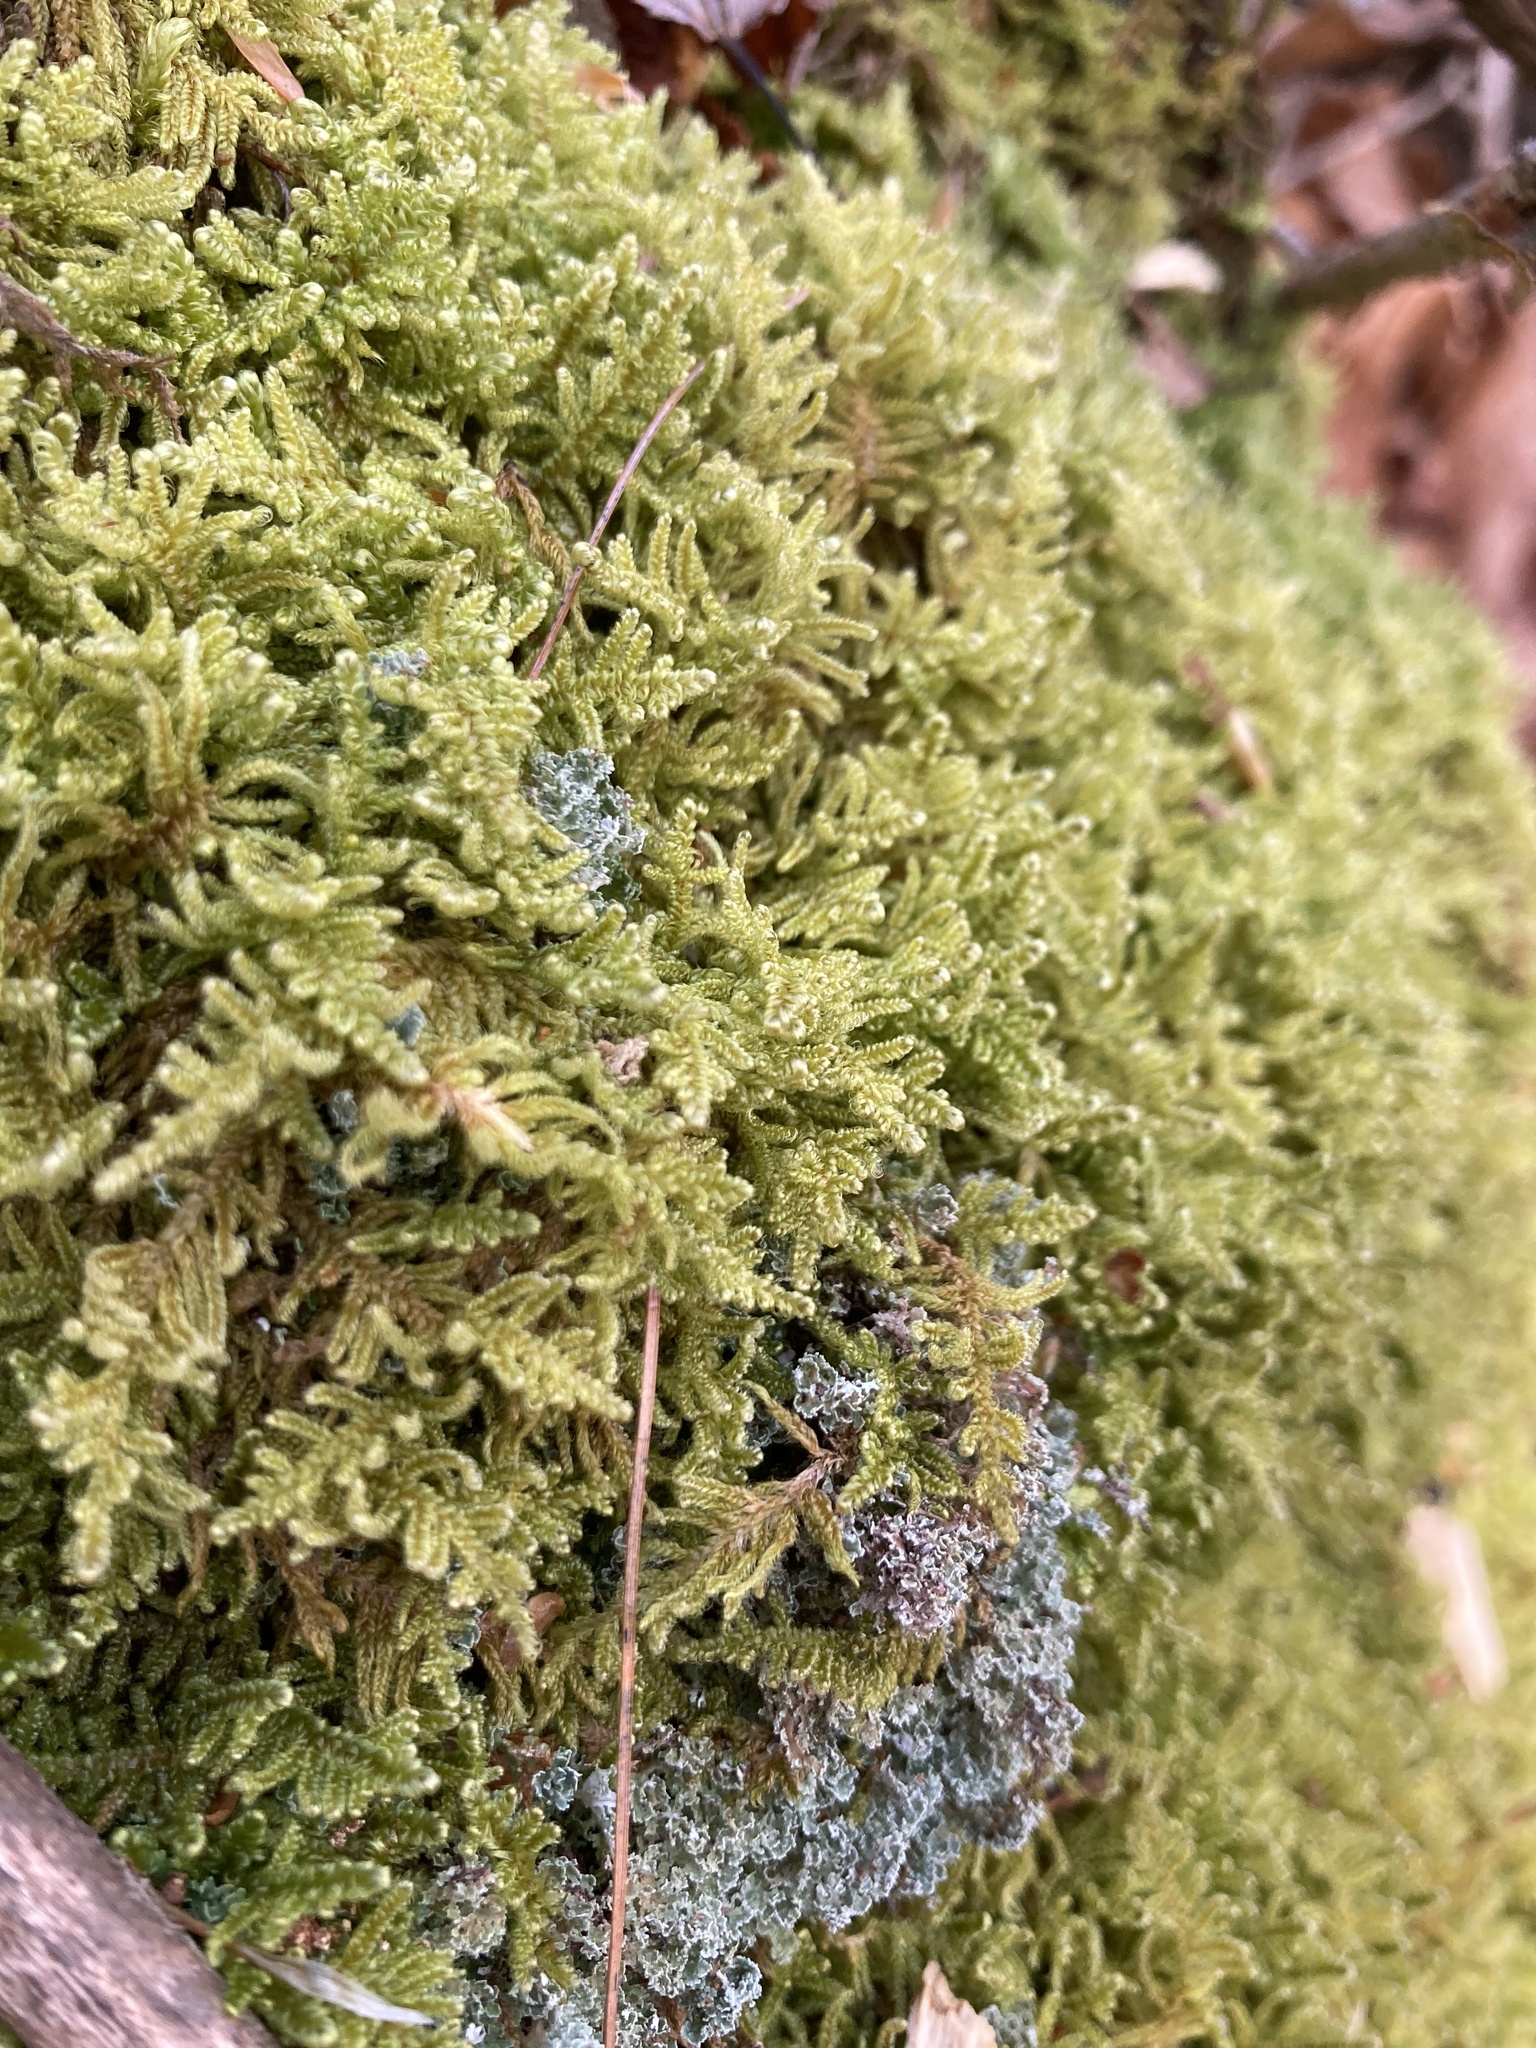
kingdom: Plantae
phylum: Bryophyta
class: Bryopsida
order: Hypnales
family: Callicladiaceae
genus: Callicladium
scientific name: Callicladium imponens
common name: Brocade moss
